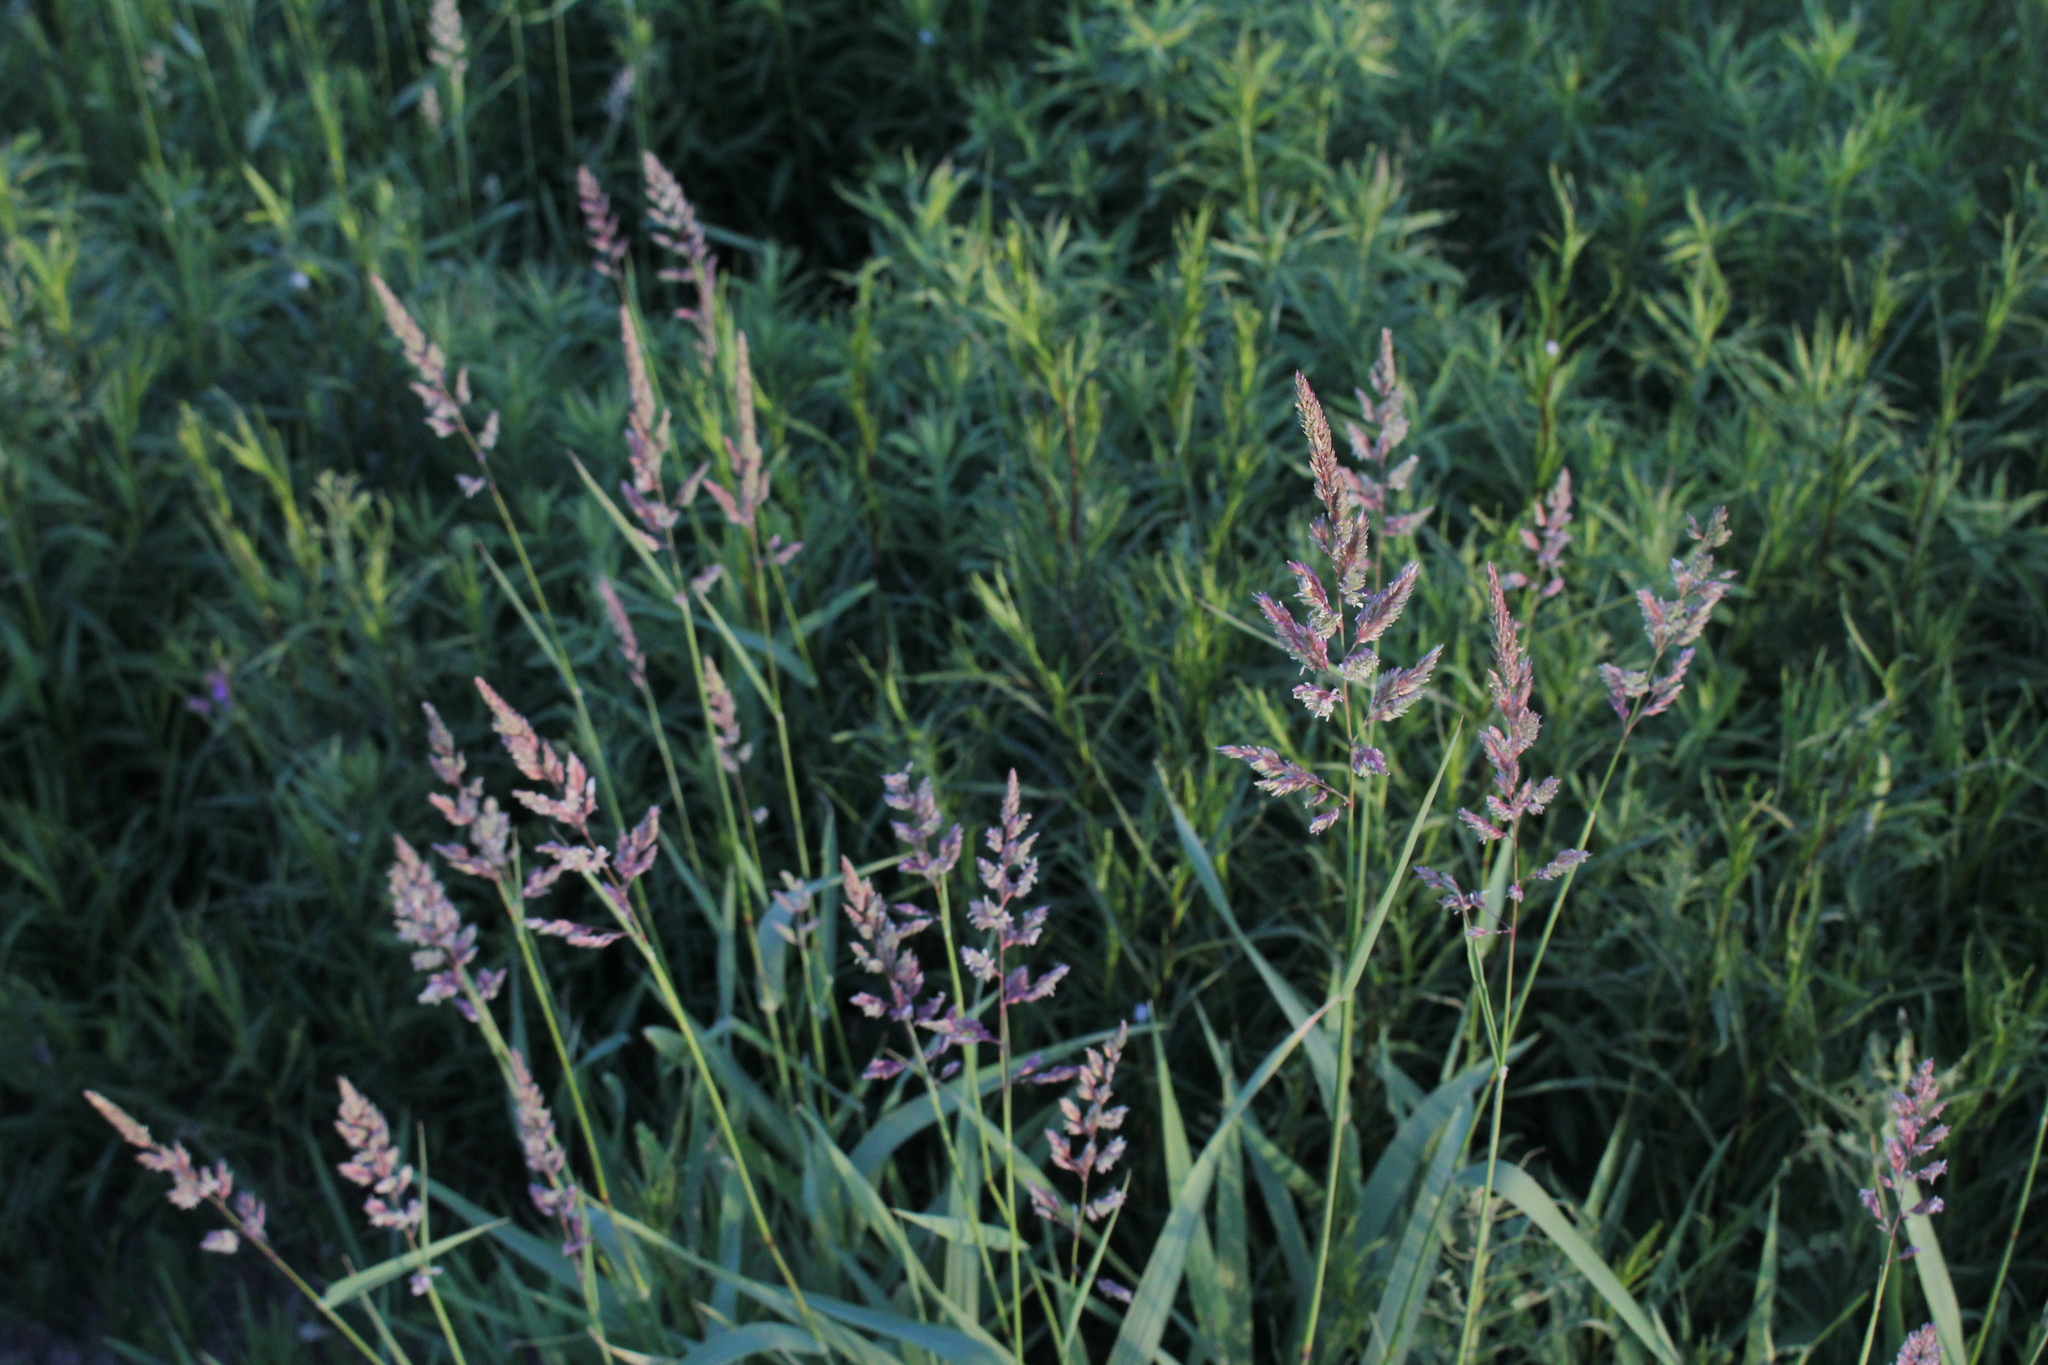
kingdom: Plantae
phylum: Tracheophyta
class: Liliopsida
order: Poales
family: Poaceae
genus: Phalaris
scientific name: Phalaris arundinacea
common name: Reed canary-grass
